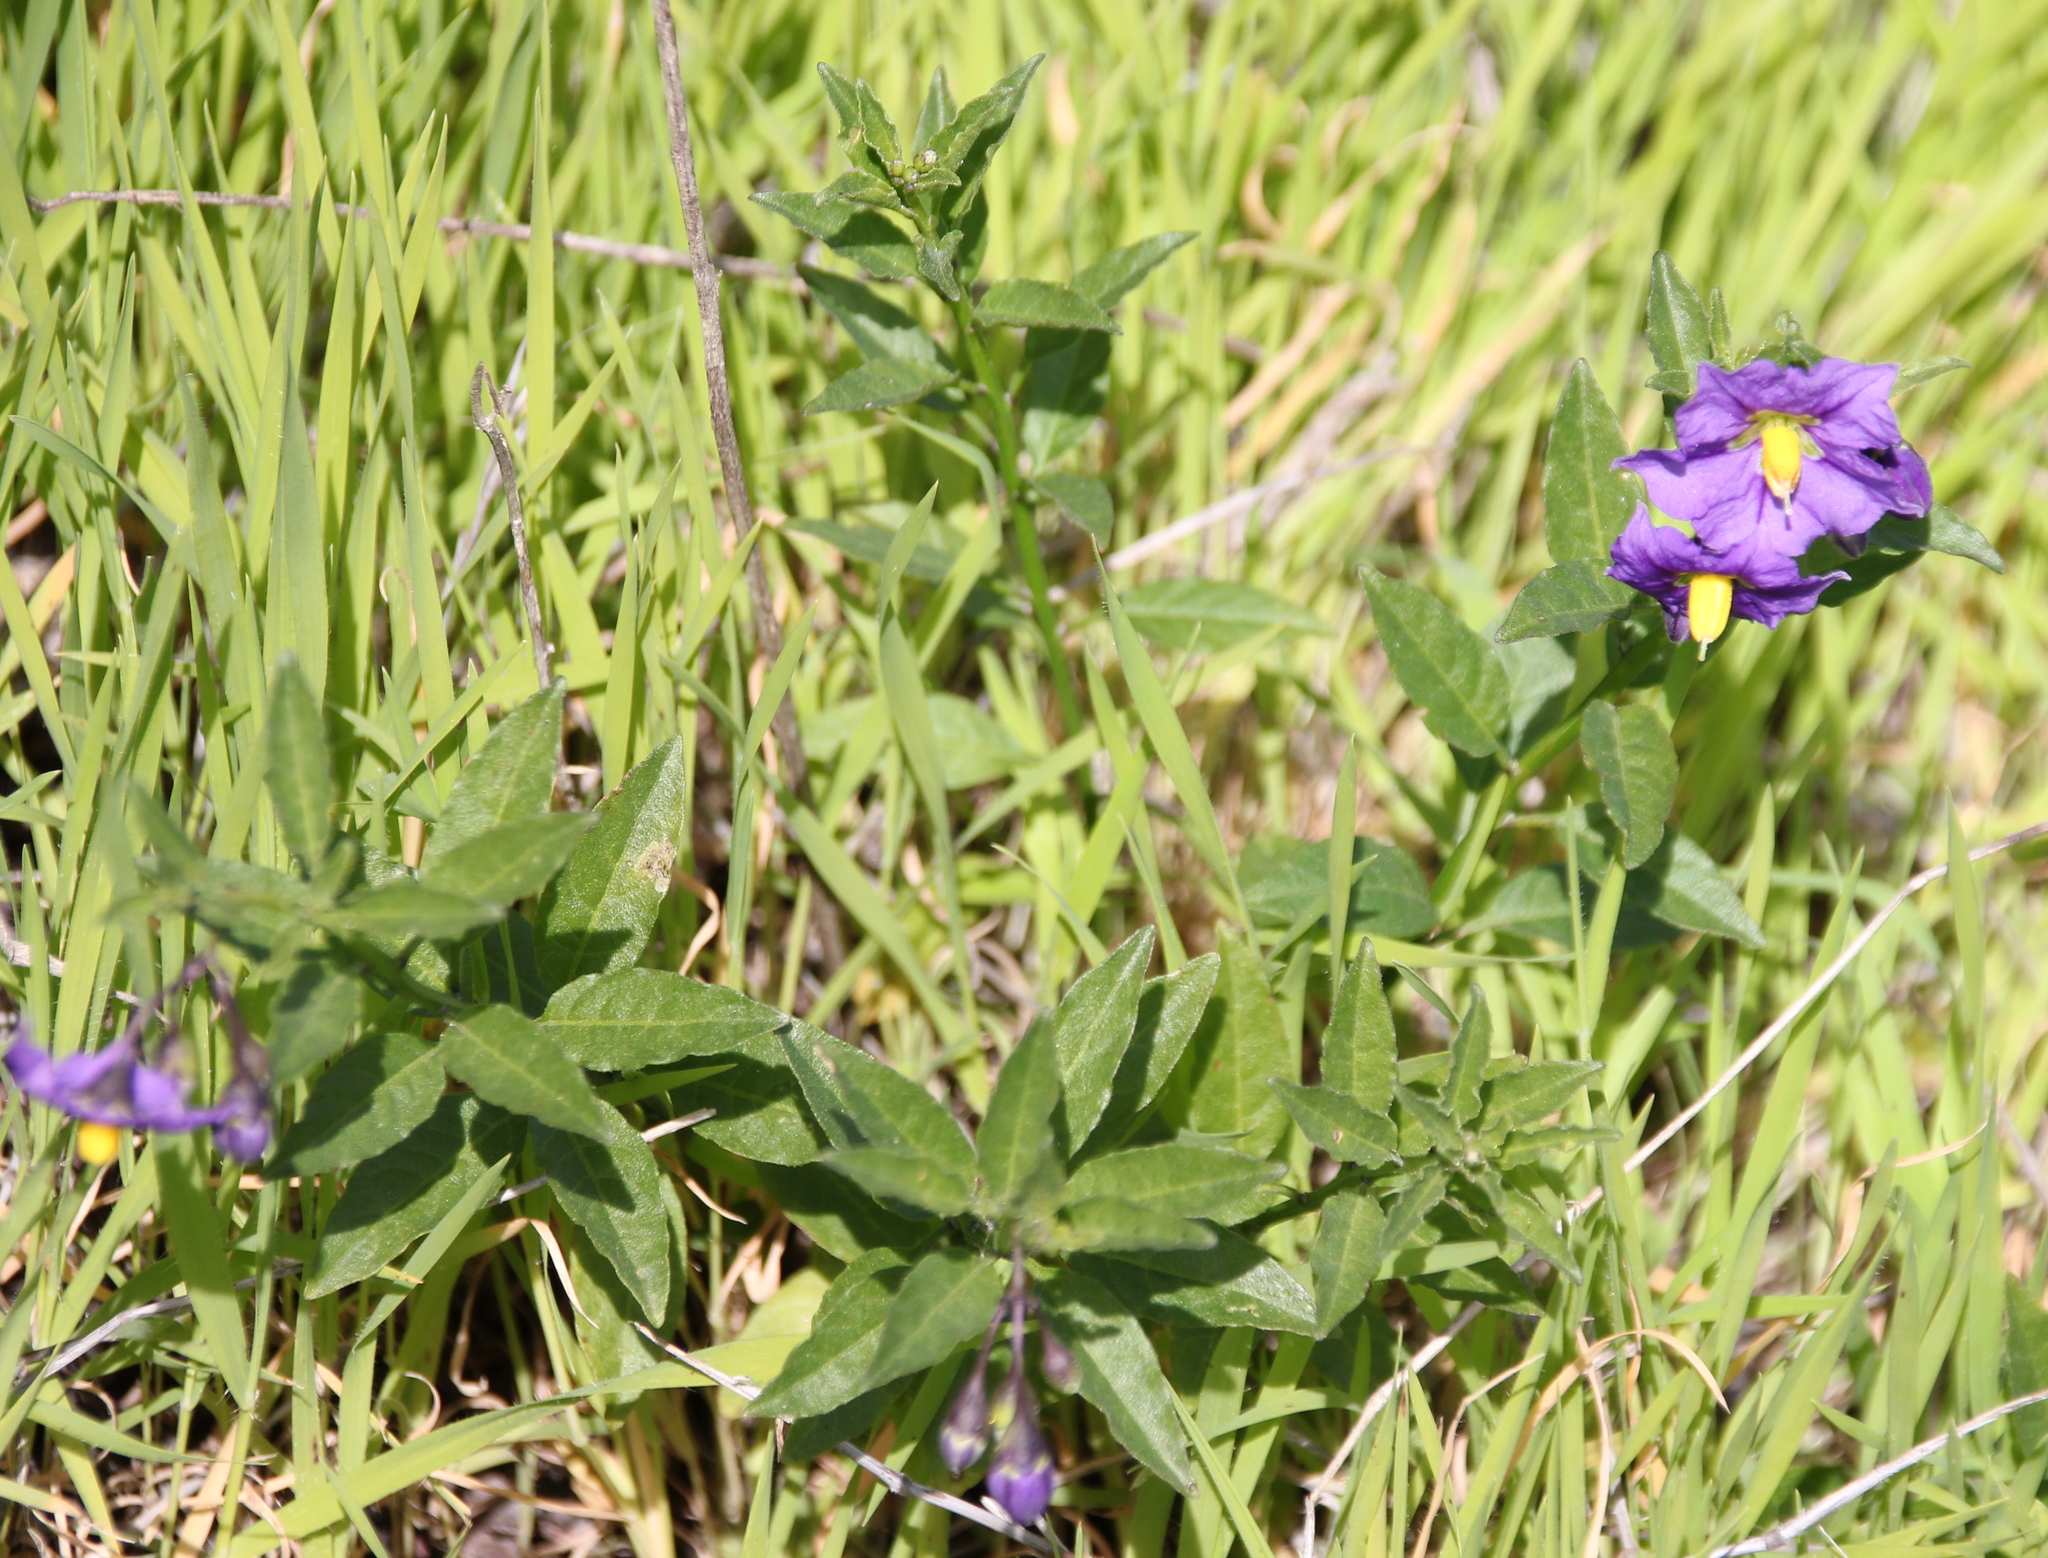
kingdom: Plantae
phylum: Tracheophyta
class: Magnoliopsida
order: Solanales
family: Solanaceae
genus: Solanum
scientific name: Solanum umbelliferum
